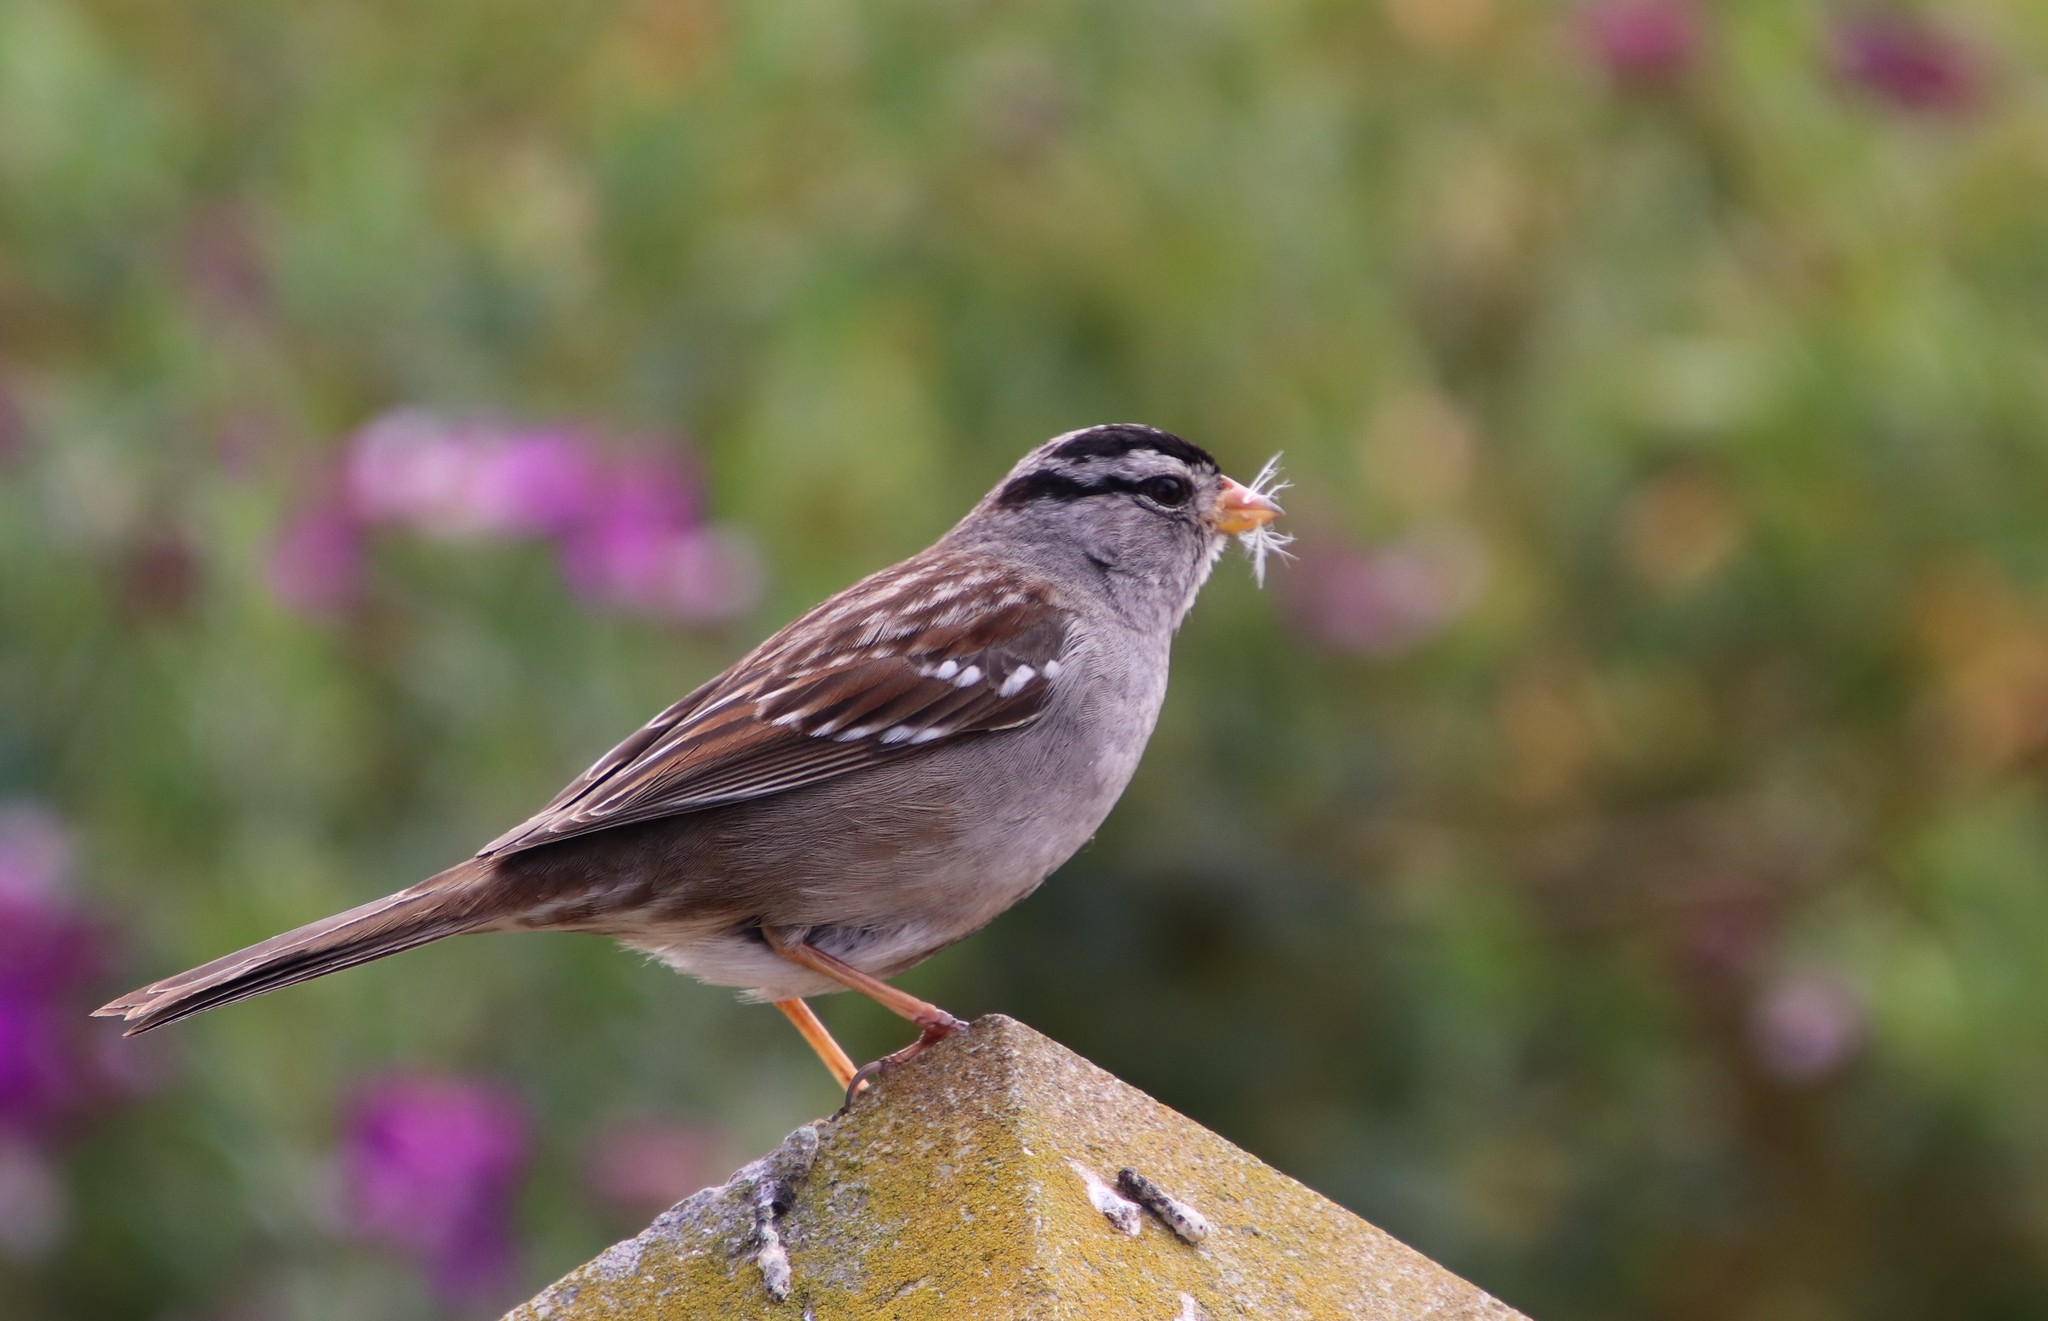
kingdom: Animalia
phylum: Chordata
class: Aves
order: Passeriformes
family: Passerellidae
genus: Zonotrichia
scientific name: Zonotrichia leucophrys
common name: White-crowned sparrow
